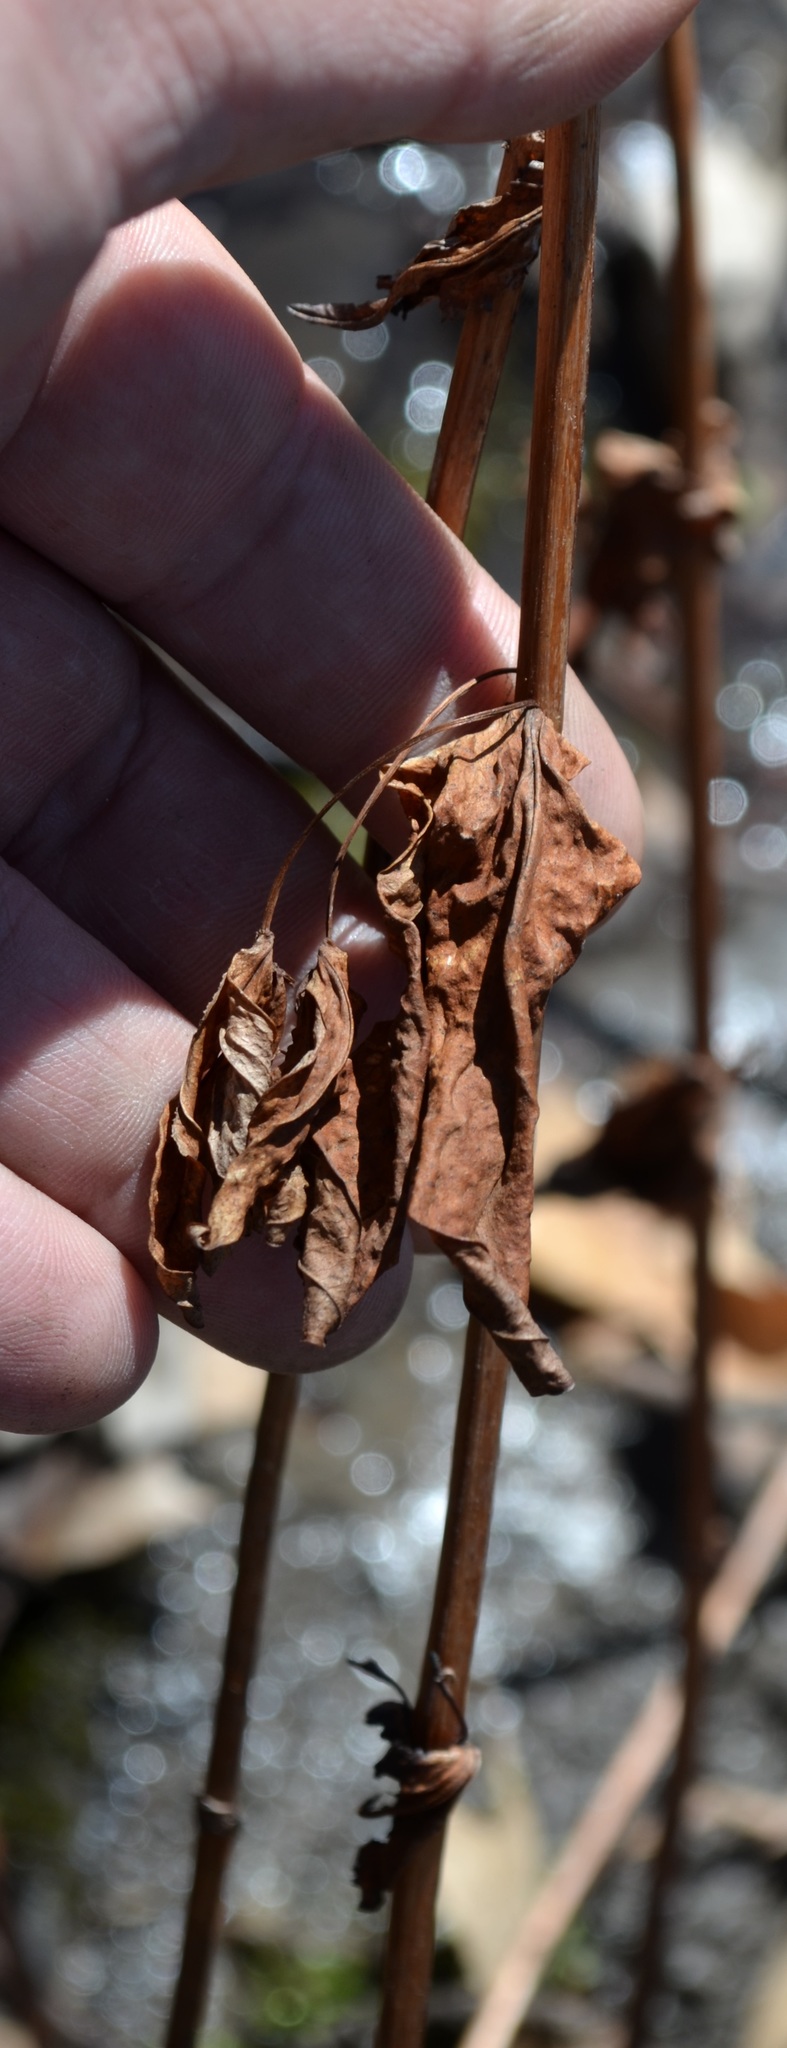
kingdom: Plantae
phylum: Tracheophyta
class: Magnoliopsida
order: Malpighiales
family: Hypericaceae
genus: Hypericum
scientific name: Hypericum ascyron
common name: Giant st. john's-wort
